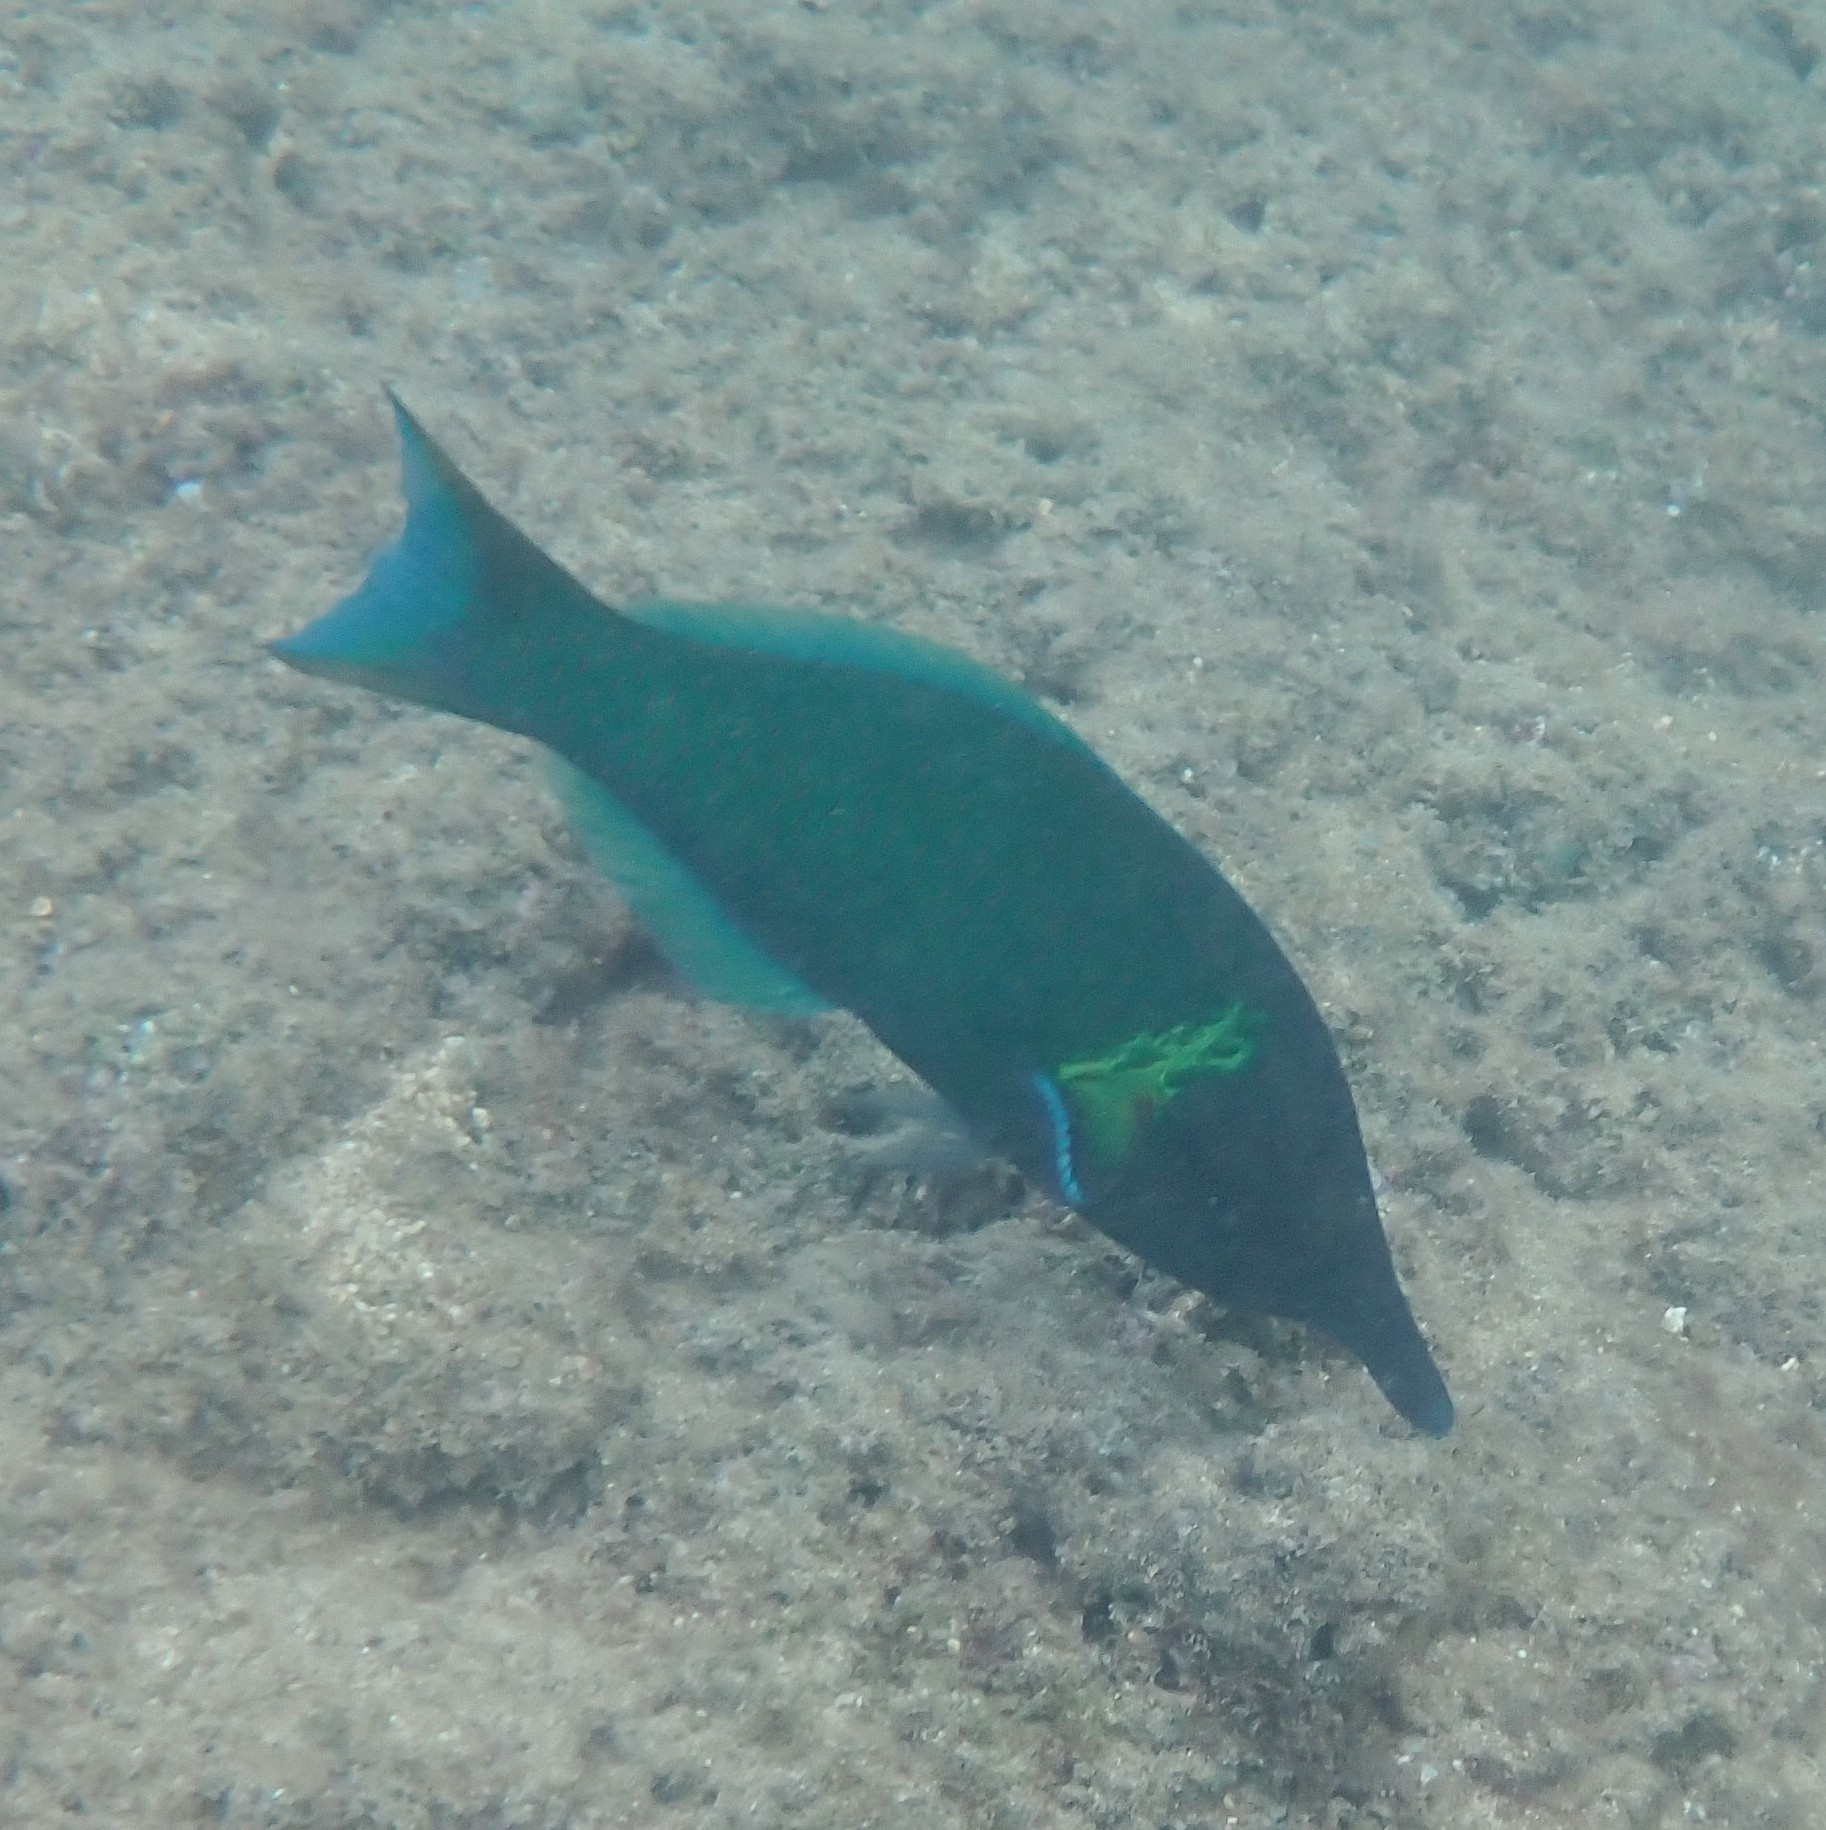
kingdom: Animalia
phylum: Chordata
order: Perciformes
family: Labridae
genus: Gomphosus
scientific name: Gomphosus varius
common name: Bird wrasse
